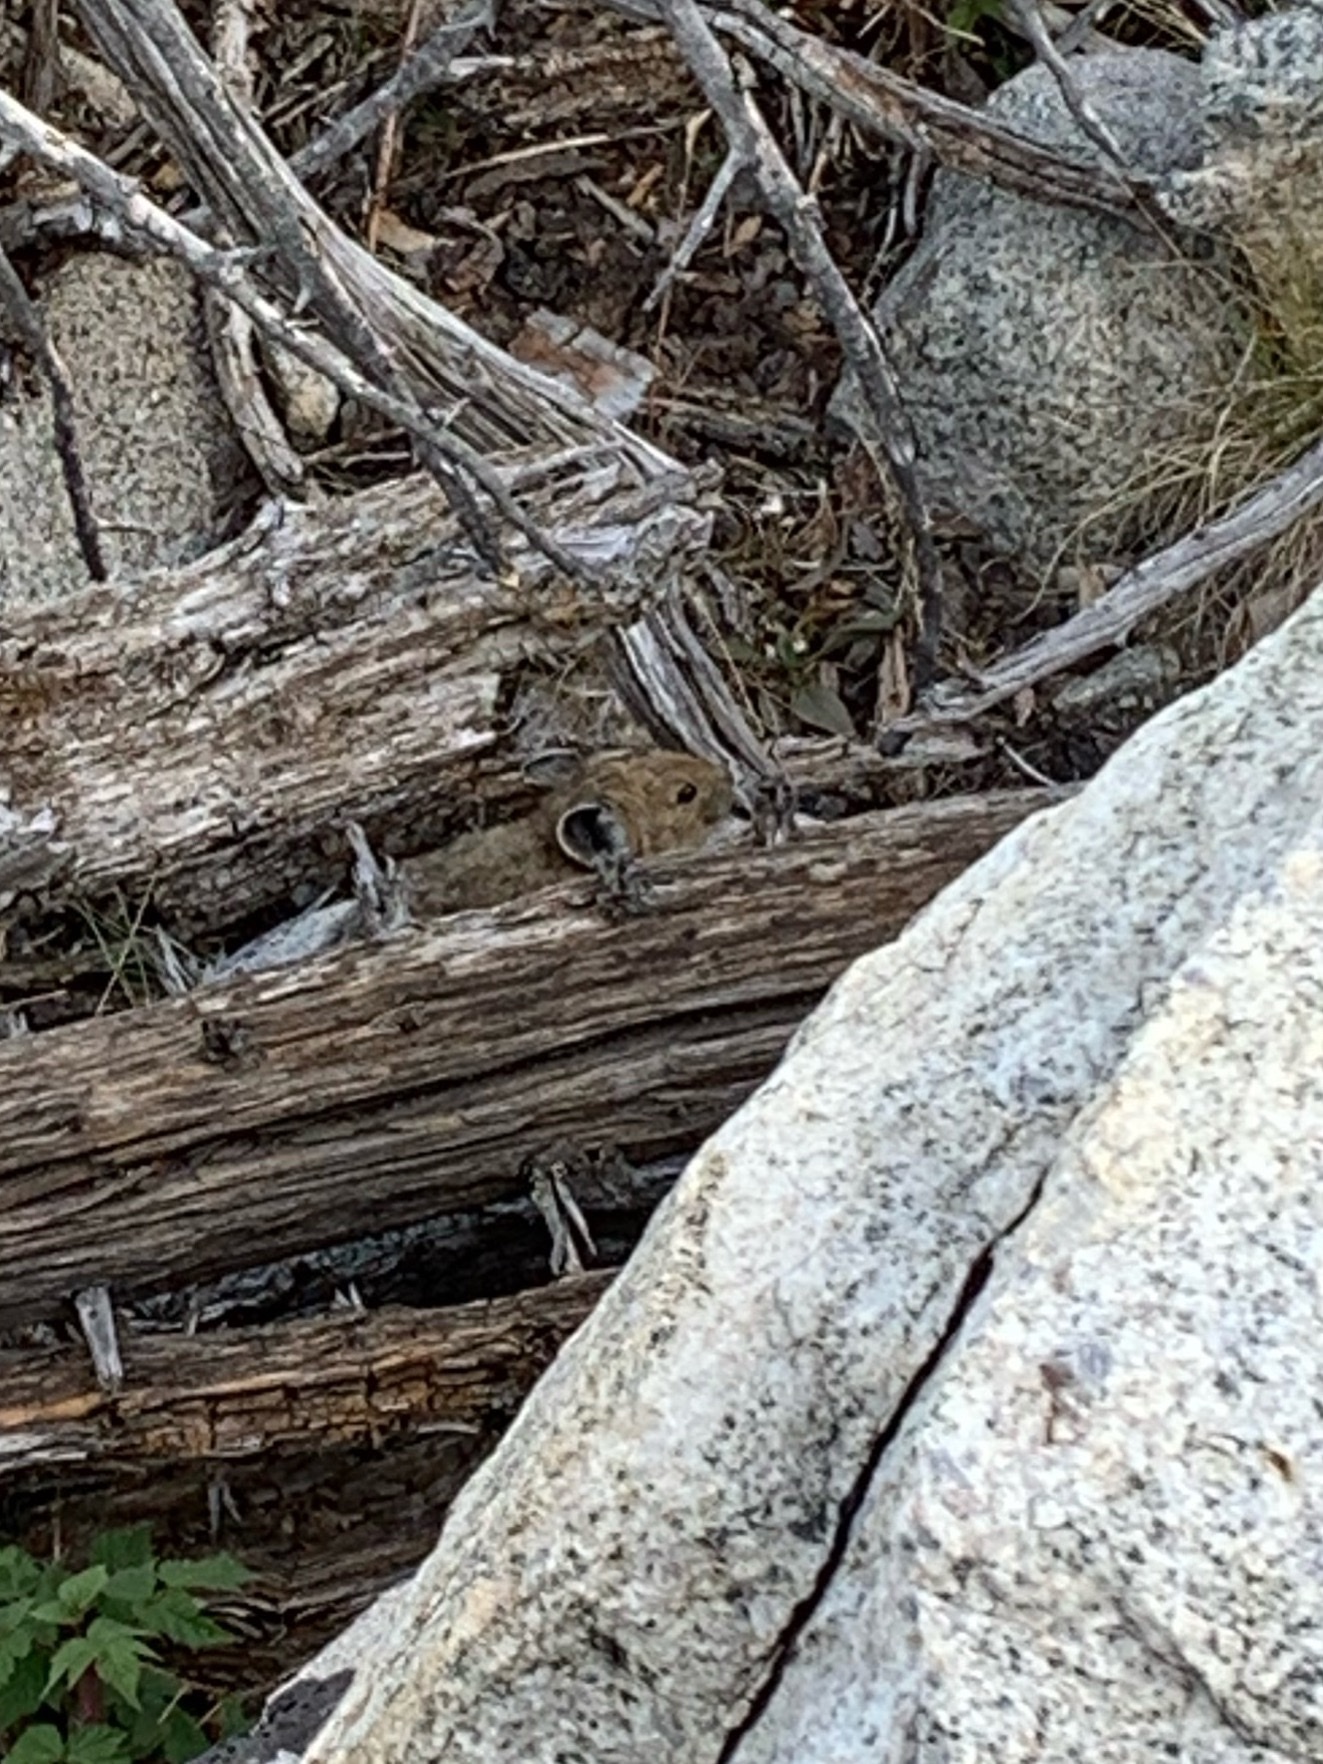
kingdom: Animalia
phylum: Chordata
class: Mammalia
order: Lagomorpha
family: Ochotonidae
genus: Ochotona
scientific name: Ochotona princeps
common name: American pika
